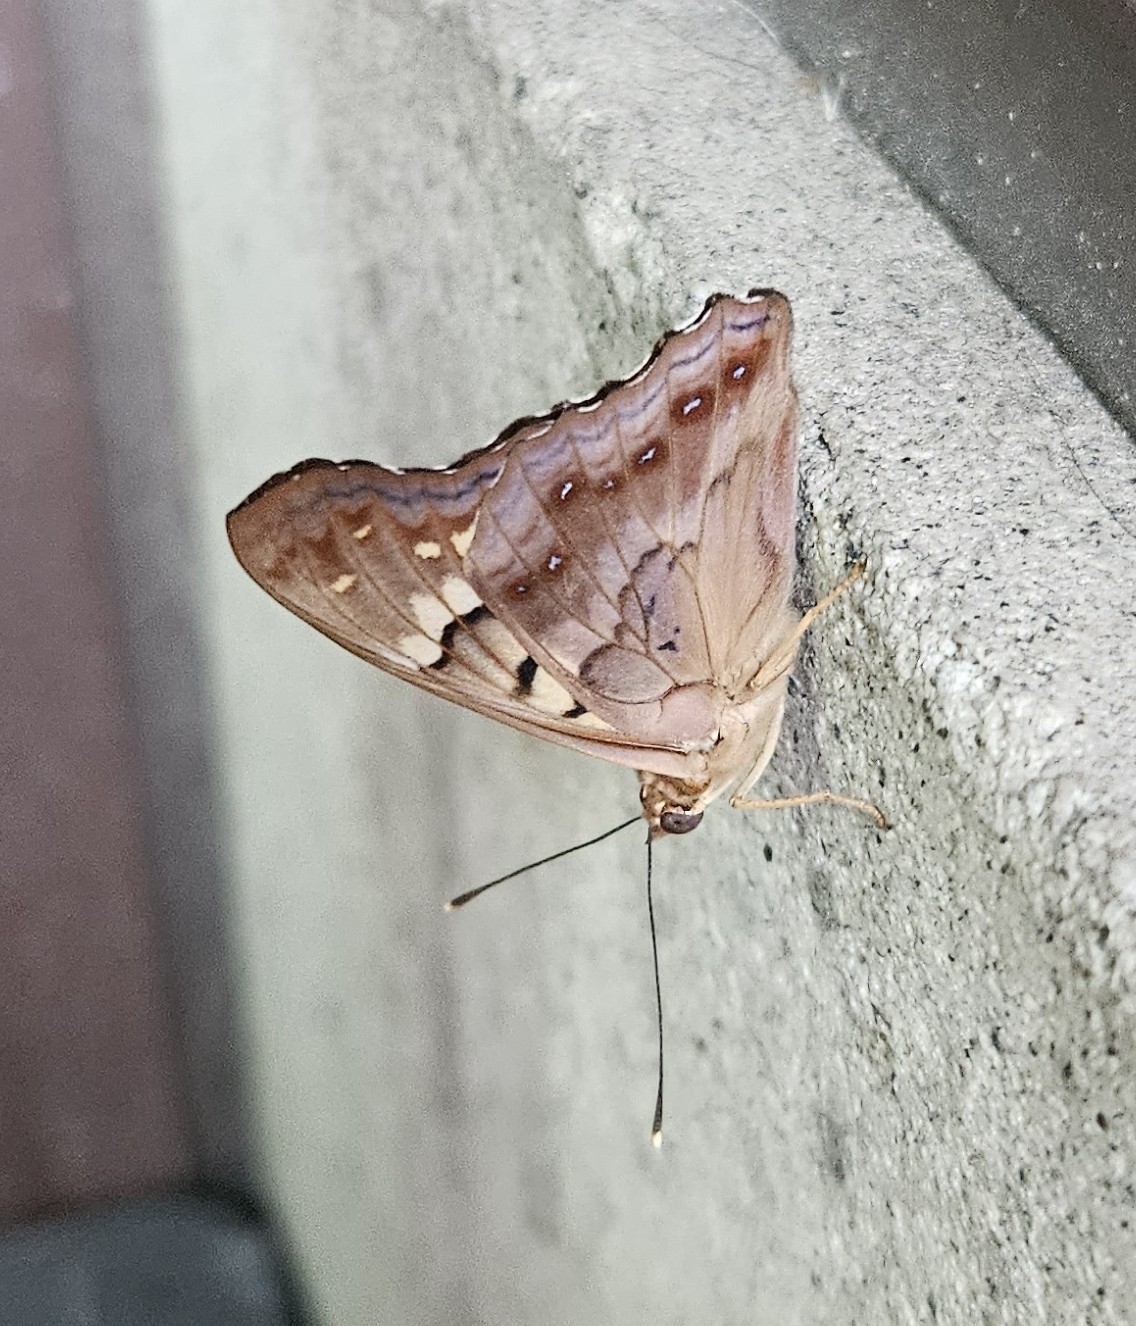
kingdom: Animalia
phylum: Arthropoda
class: Insecta
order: Lepidoptera
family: Nymphalidae
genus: Asterocampa
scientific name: Asterocampa clyton
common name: Tawny emperor
